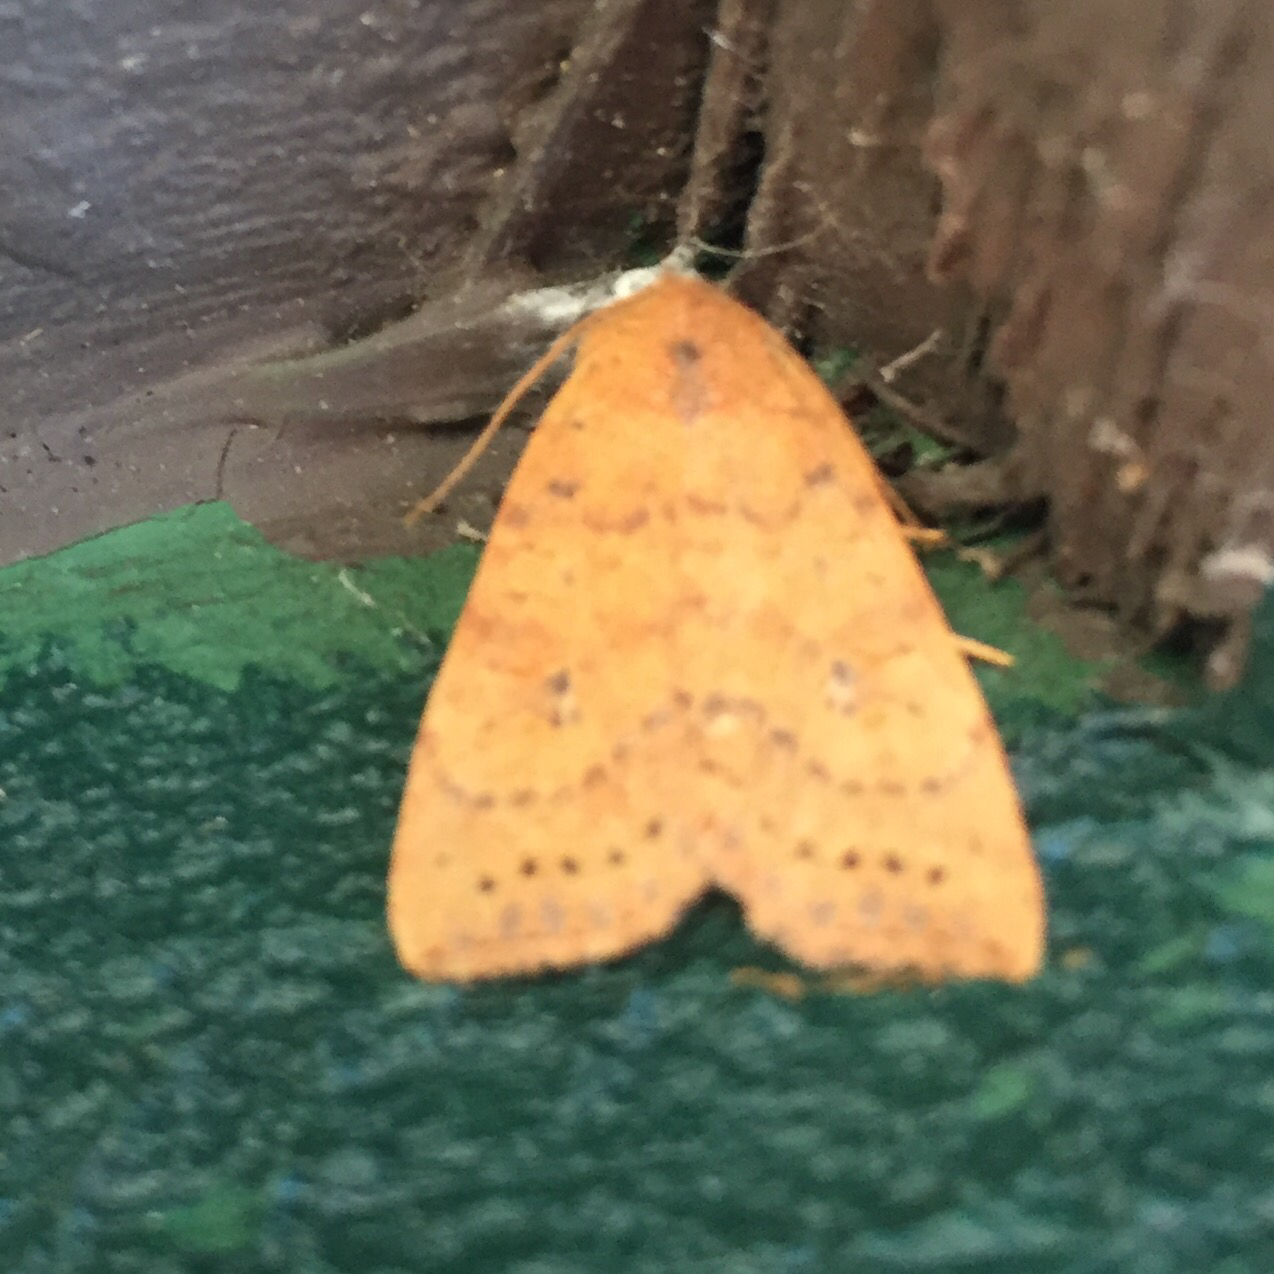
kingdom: Animalia
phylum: Arthropoda
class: Insecta
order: Lepidoptera
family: Noctuidae
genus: Anathix
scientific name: Anathix ralla
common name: Dotted sallow
